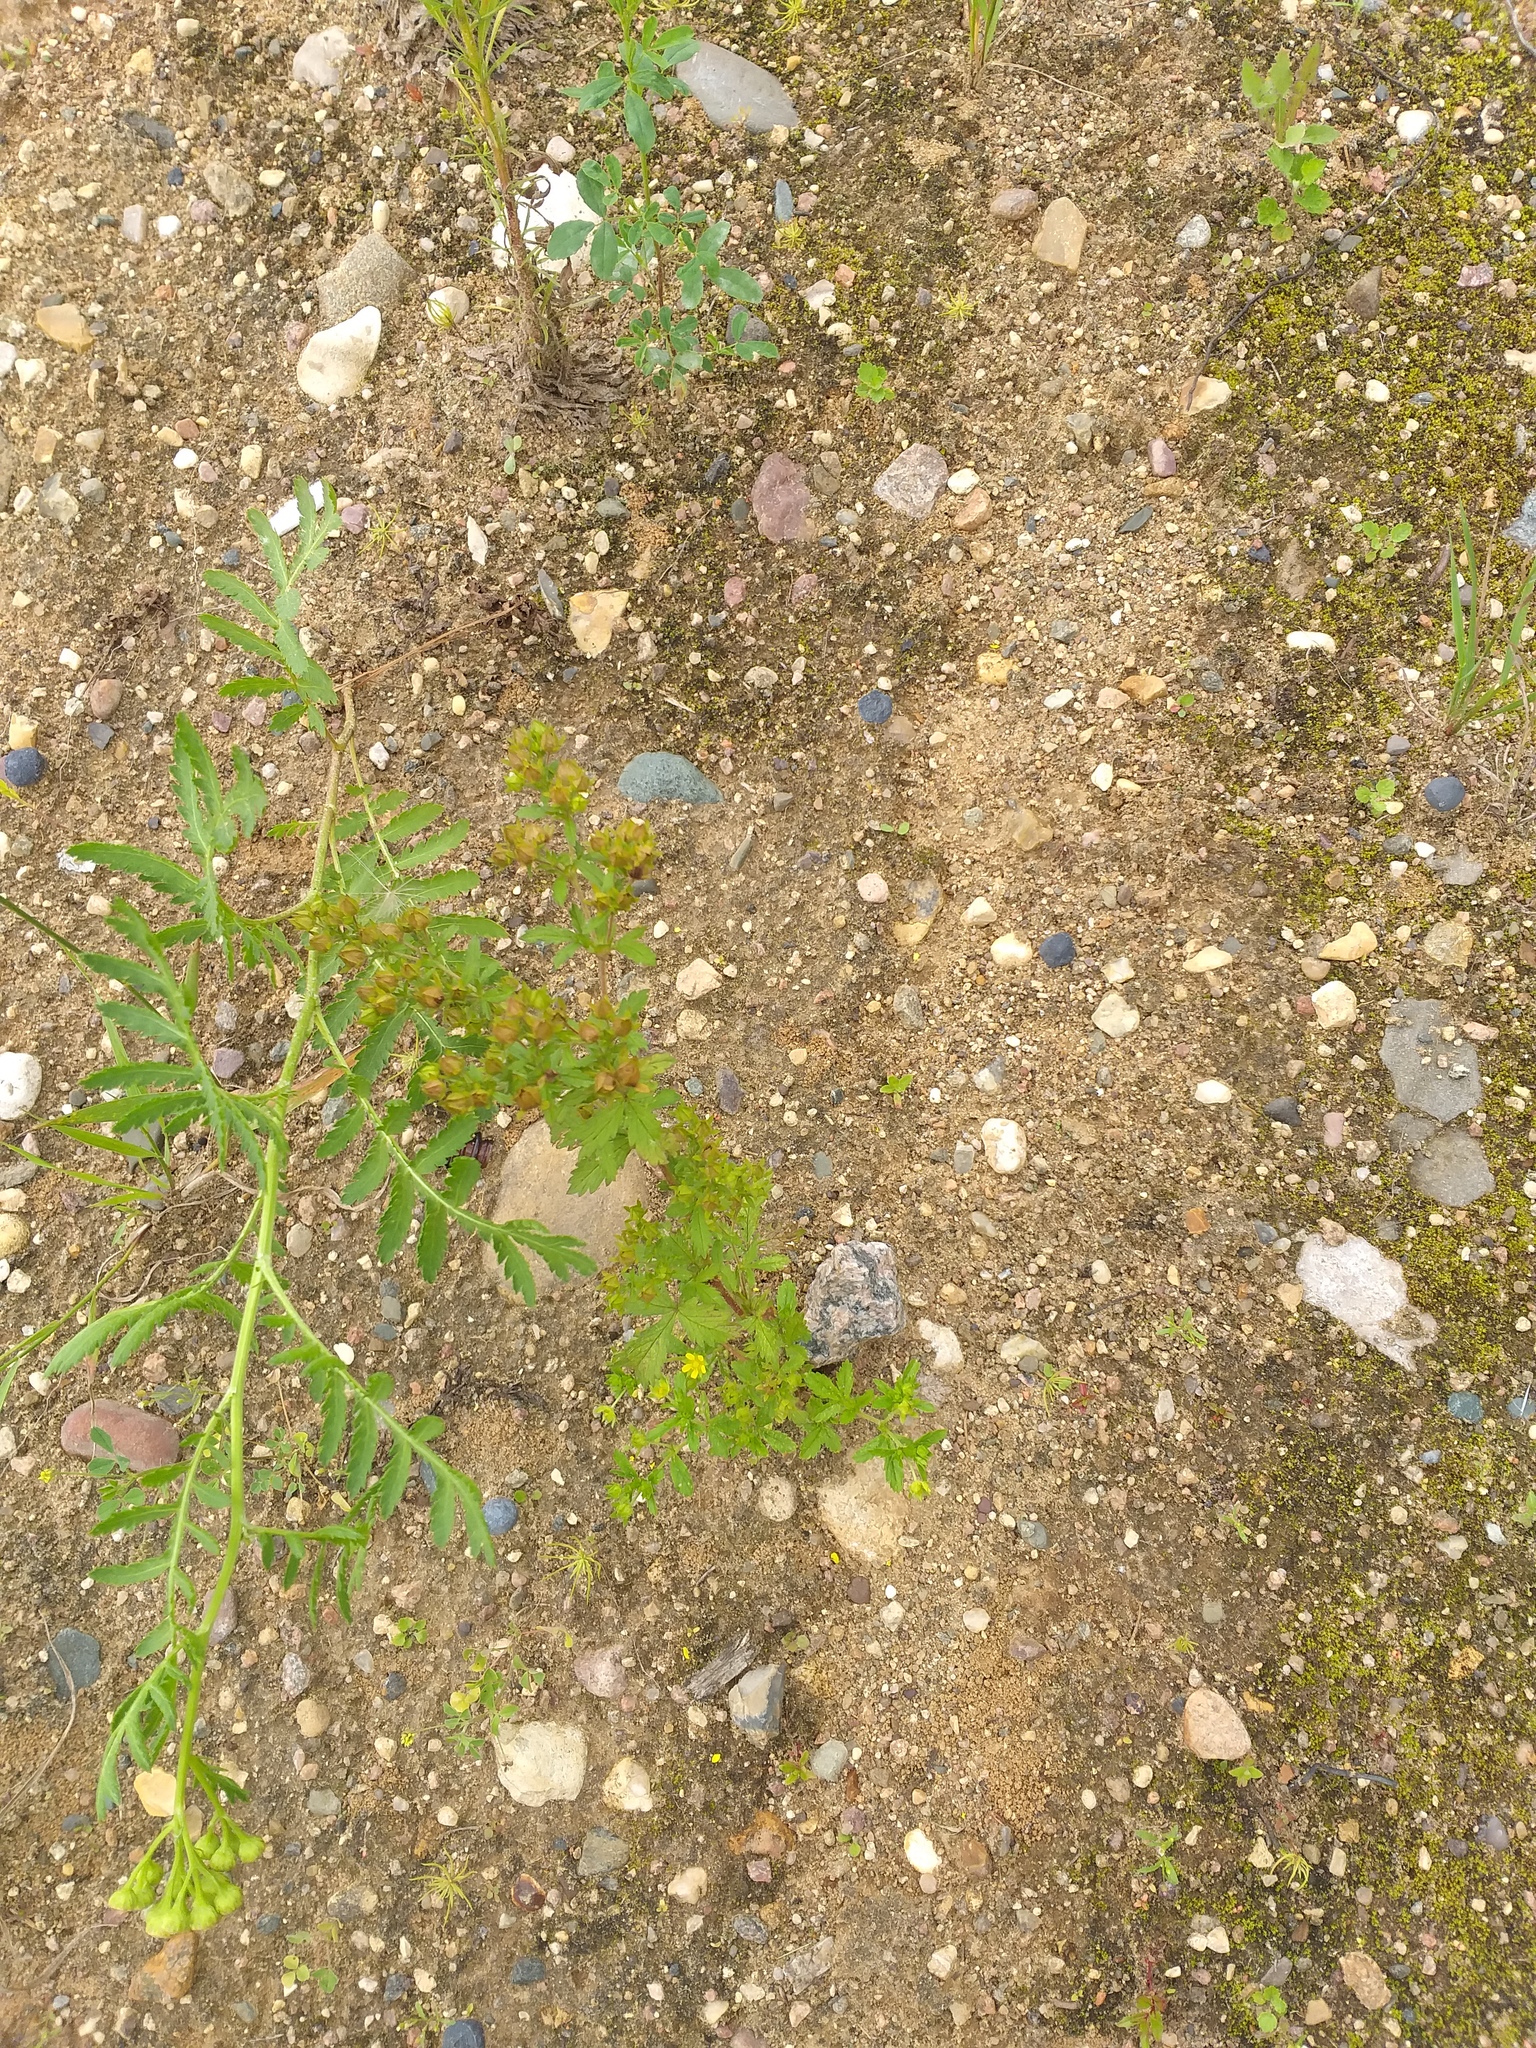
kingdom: Plantae
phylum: Tracheophyta
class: Magnoliopsida
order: Rosales
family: Rosaceae
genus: Potentilla
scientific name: Potentilla norvegica
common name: Ternate-leaved cinquefoil
